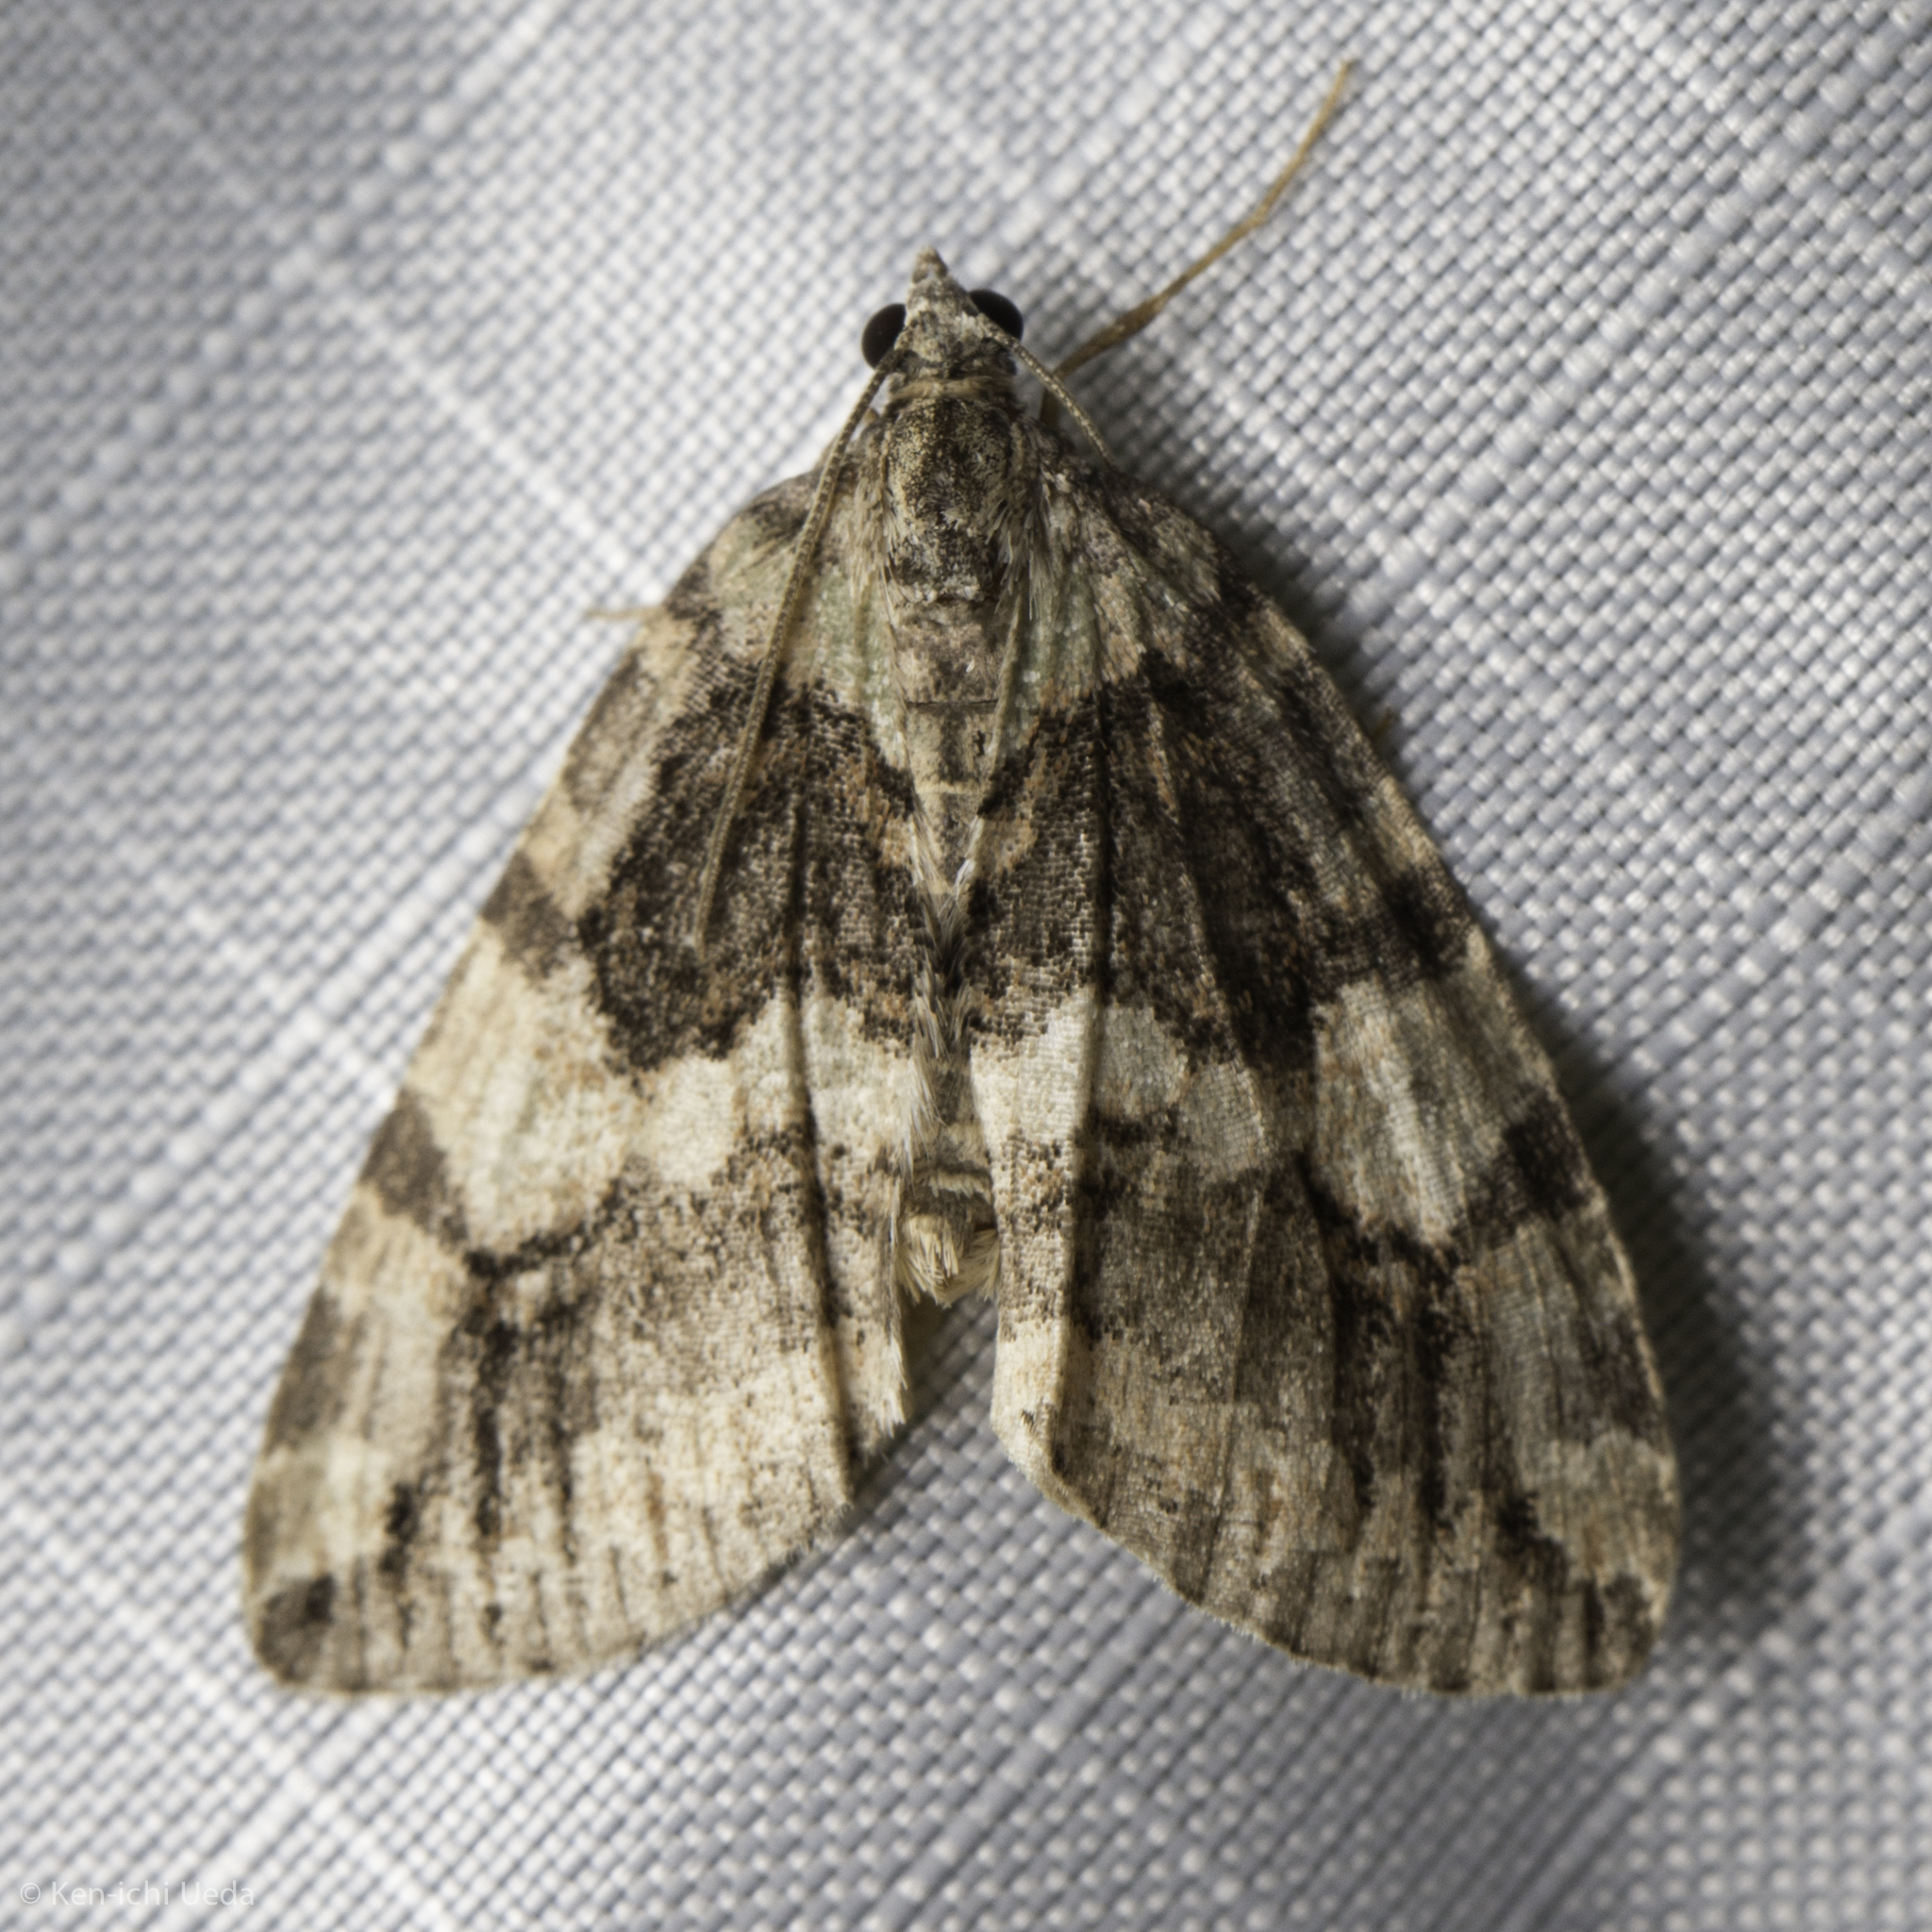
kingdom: Animalia
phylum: Arthropoda
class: Insecta
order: Lepidoptera
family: Geometridae
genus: Hydriomena
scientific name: Hydriomena nubilofasciata
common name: Oak winter highflier moth
